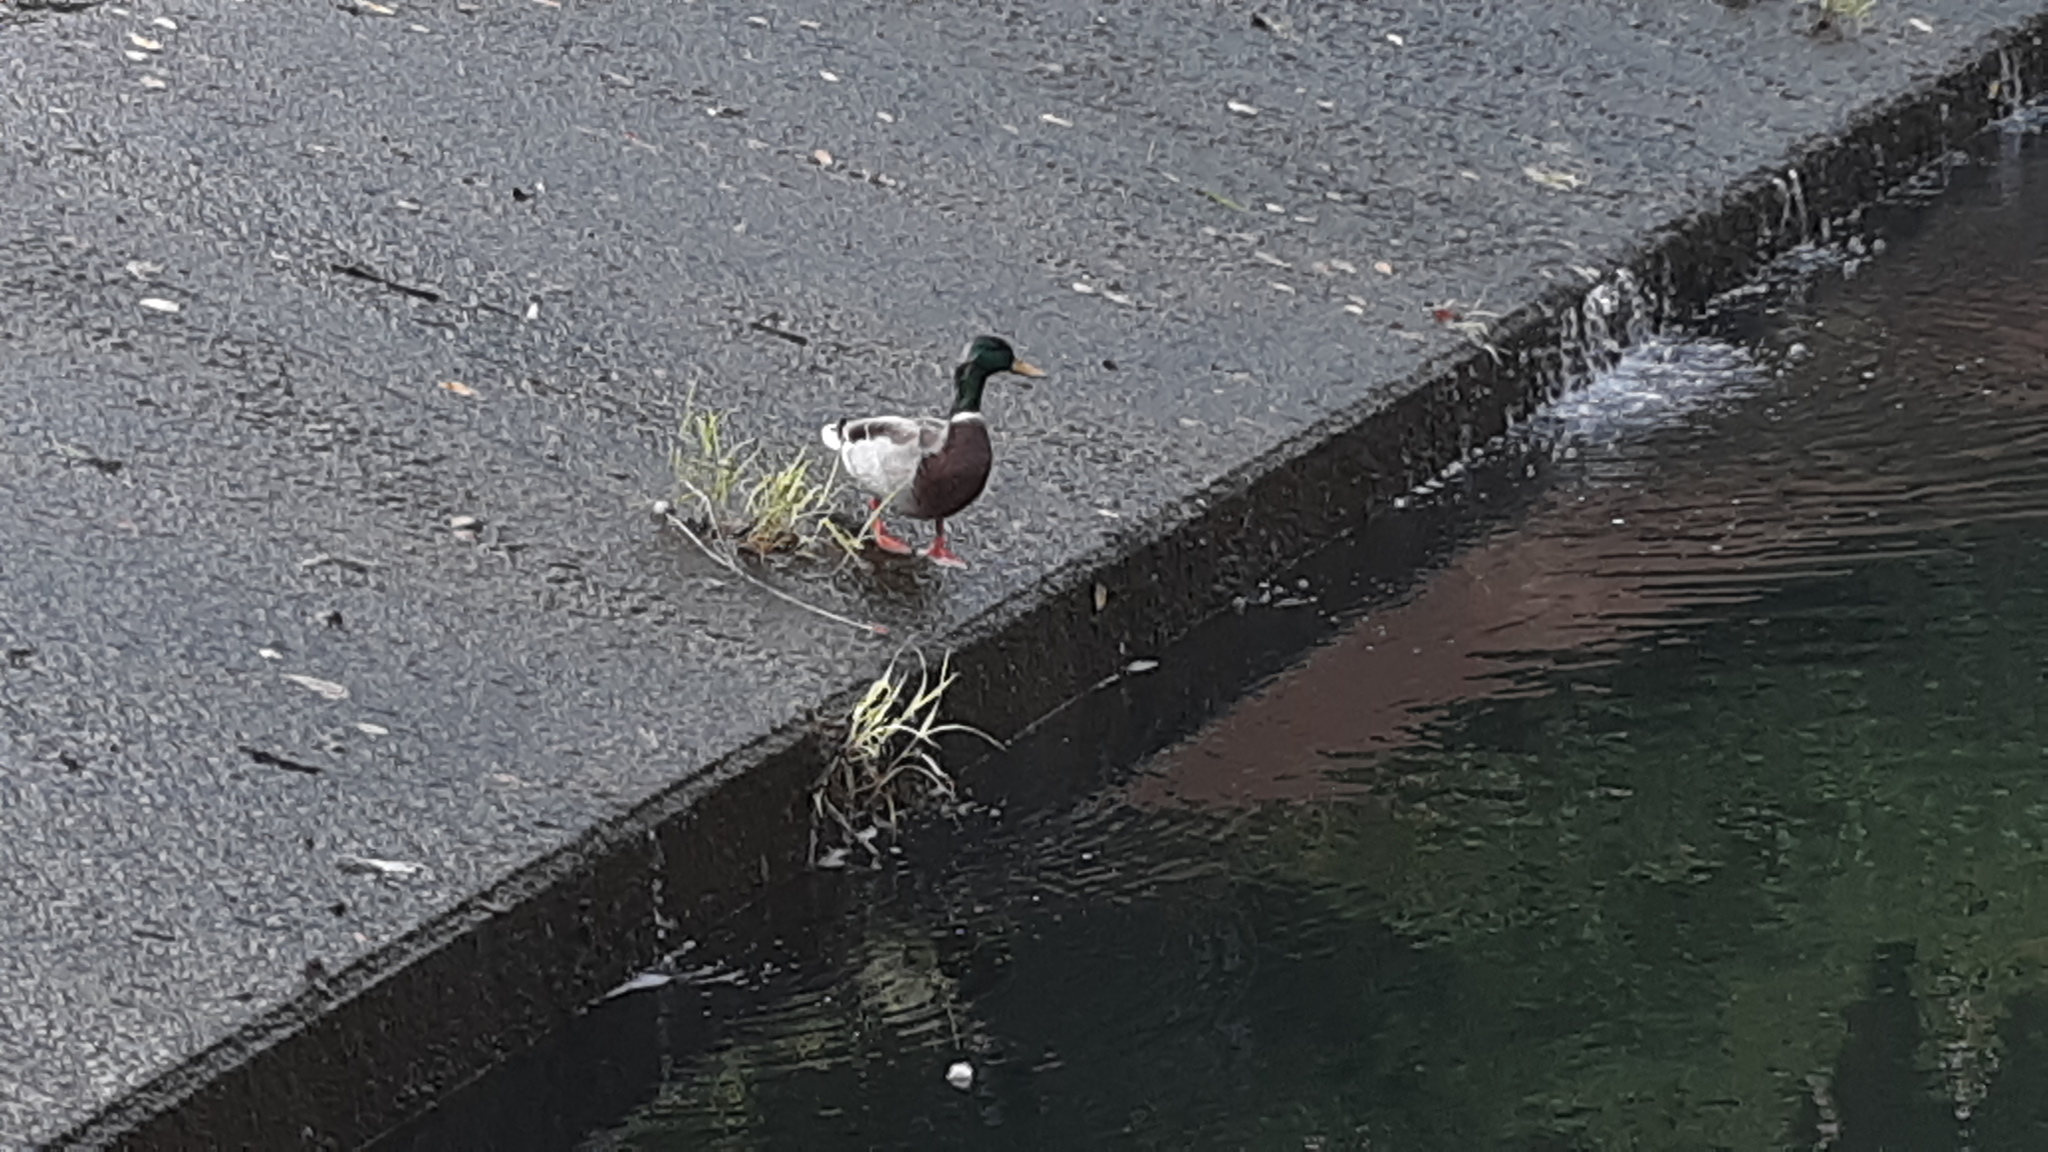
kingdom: Animalia
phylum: Chordata
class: Aves
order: Anseriformes
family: Anatidae
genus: Anas
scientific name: Anas platyrhynchos
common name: Mallard
